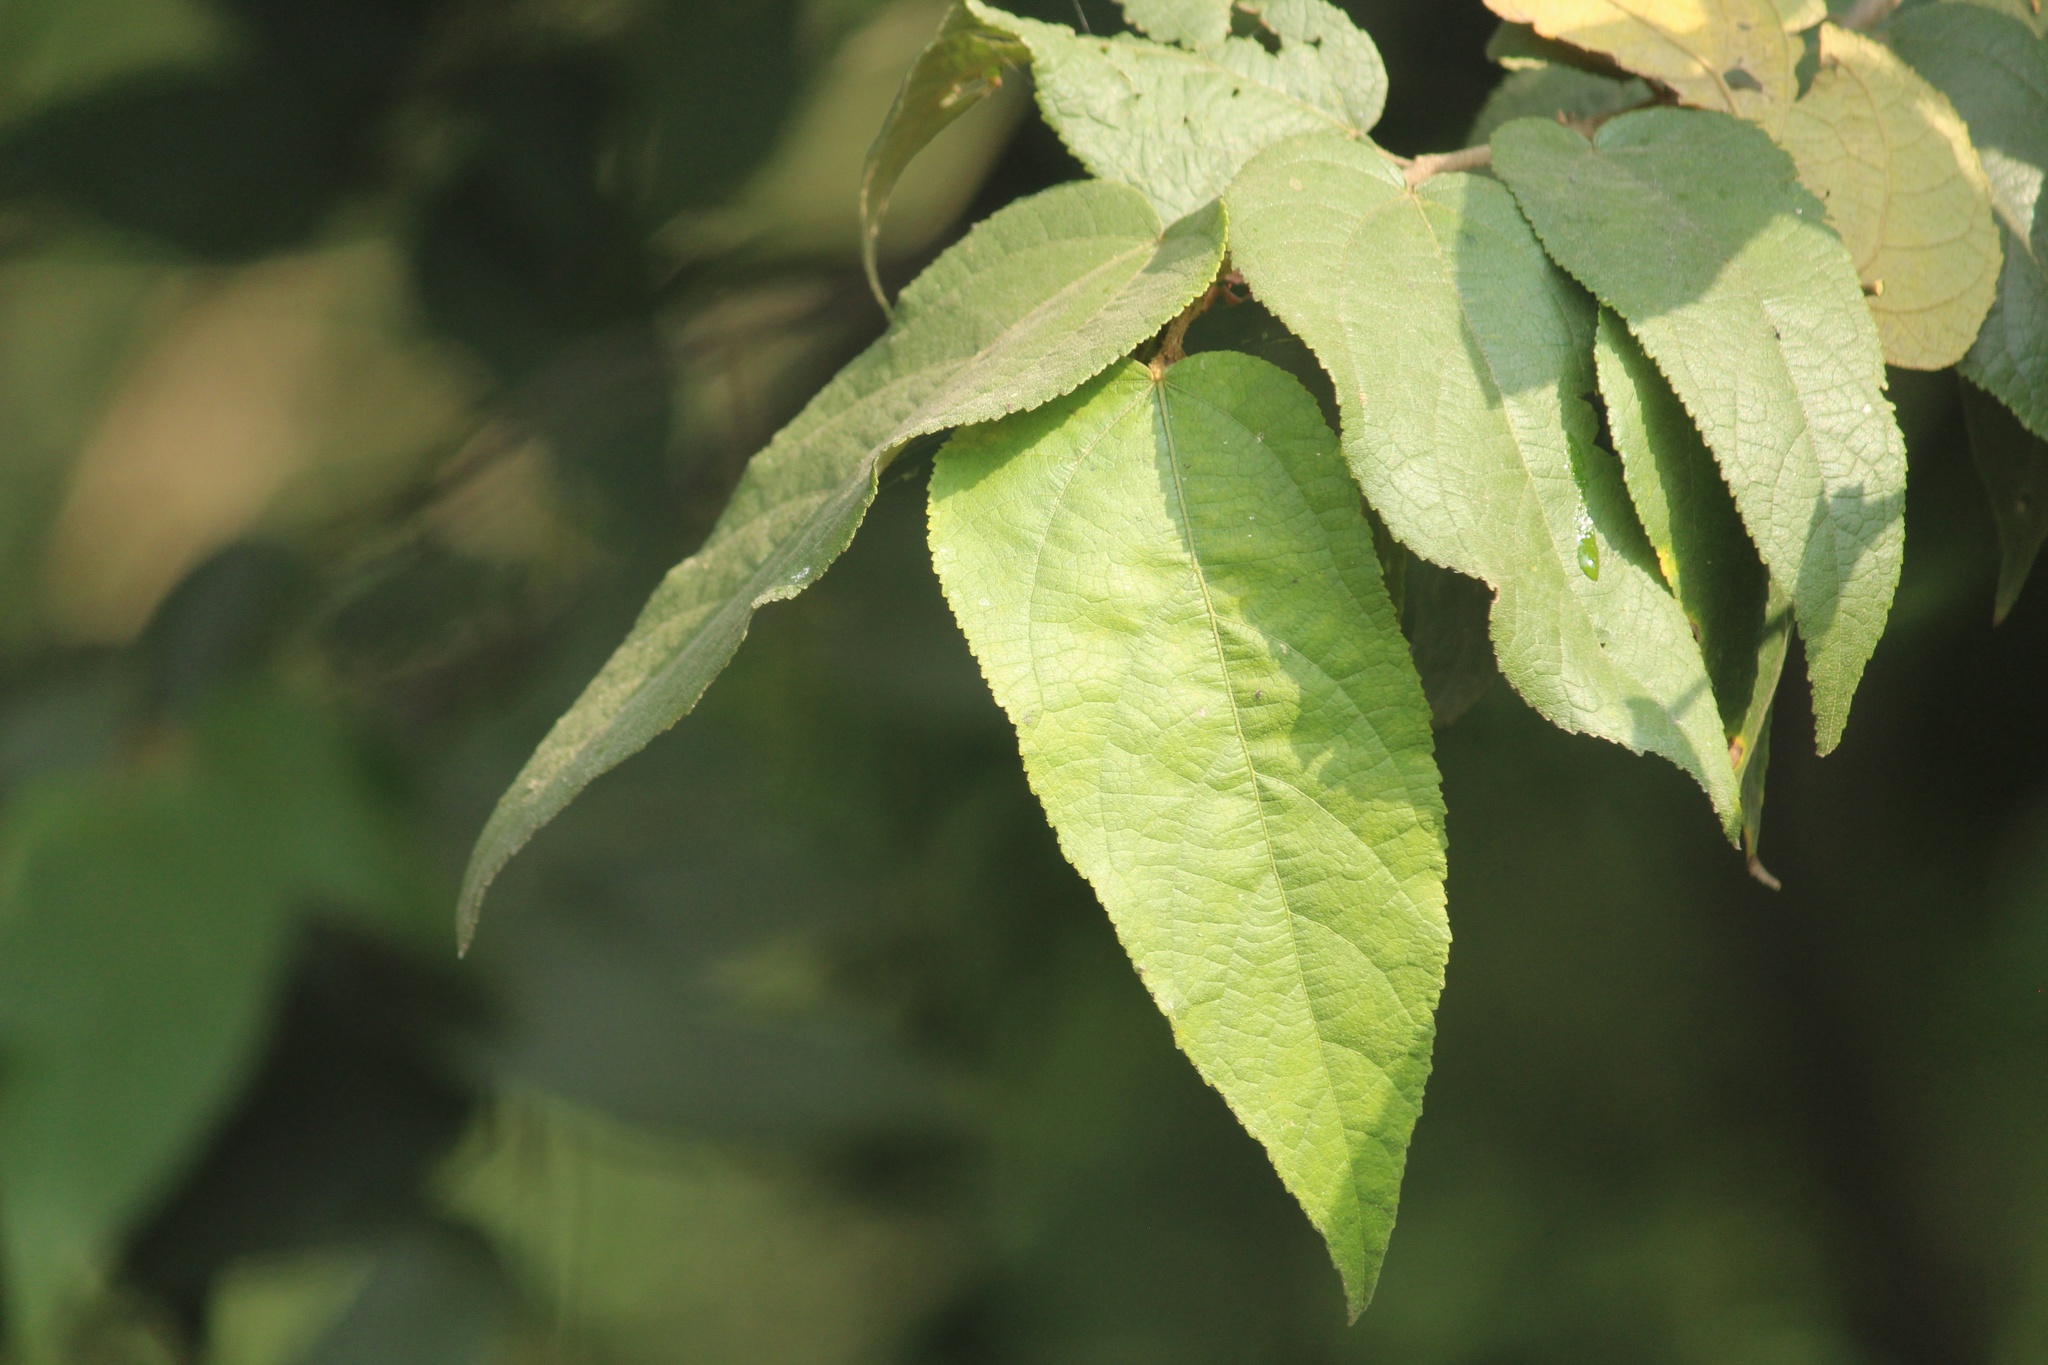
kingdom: Plantae
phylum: Tracheophyta
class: Magnoliopsida
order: Malvales
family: Malvaceae
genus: Guazuma
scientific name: Guazuma ulmifolia
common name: Bastard-cedar
